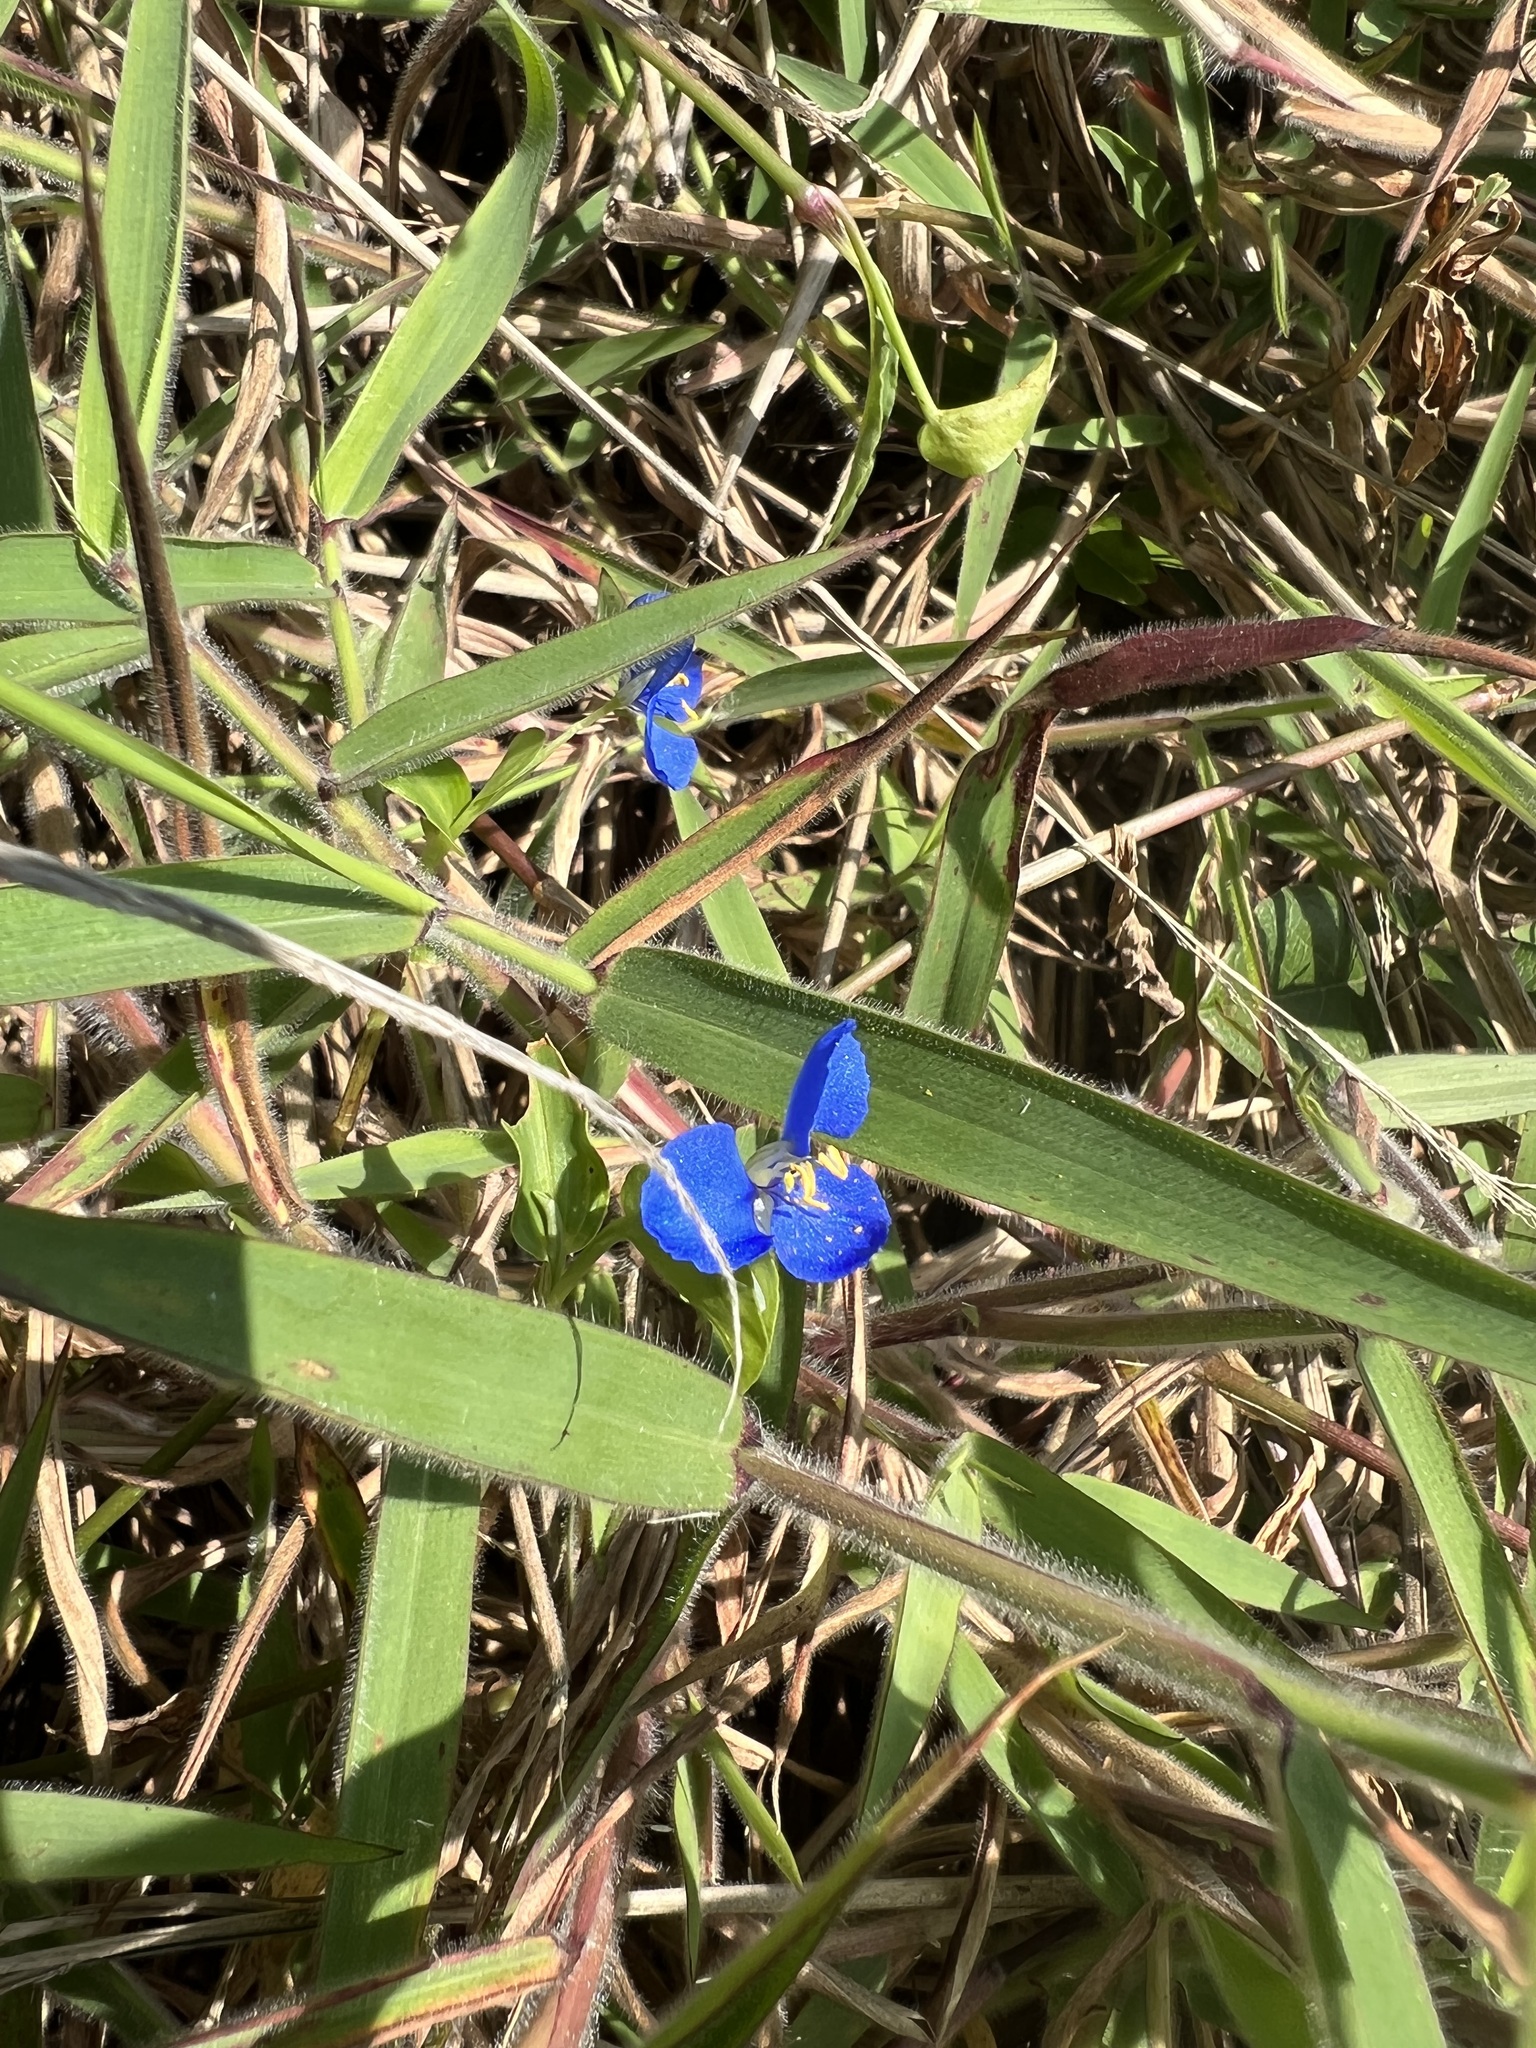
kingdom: Plantae
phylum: Tracheophyta
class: Liliopsida
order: Commelinales
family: Commelinaceae
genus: Commelina
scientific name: Commelina lanceolata
